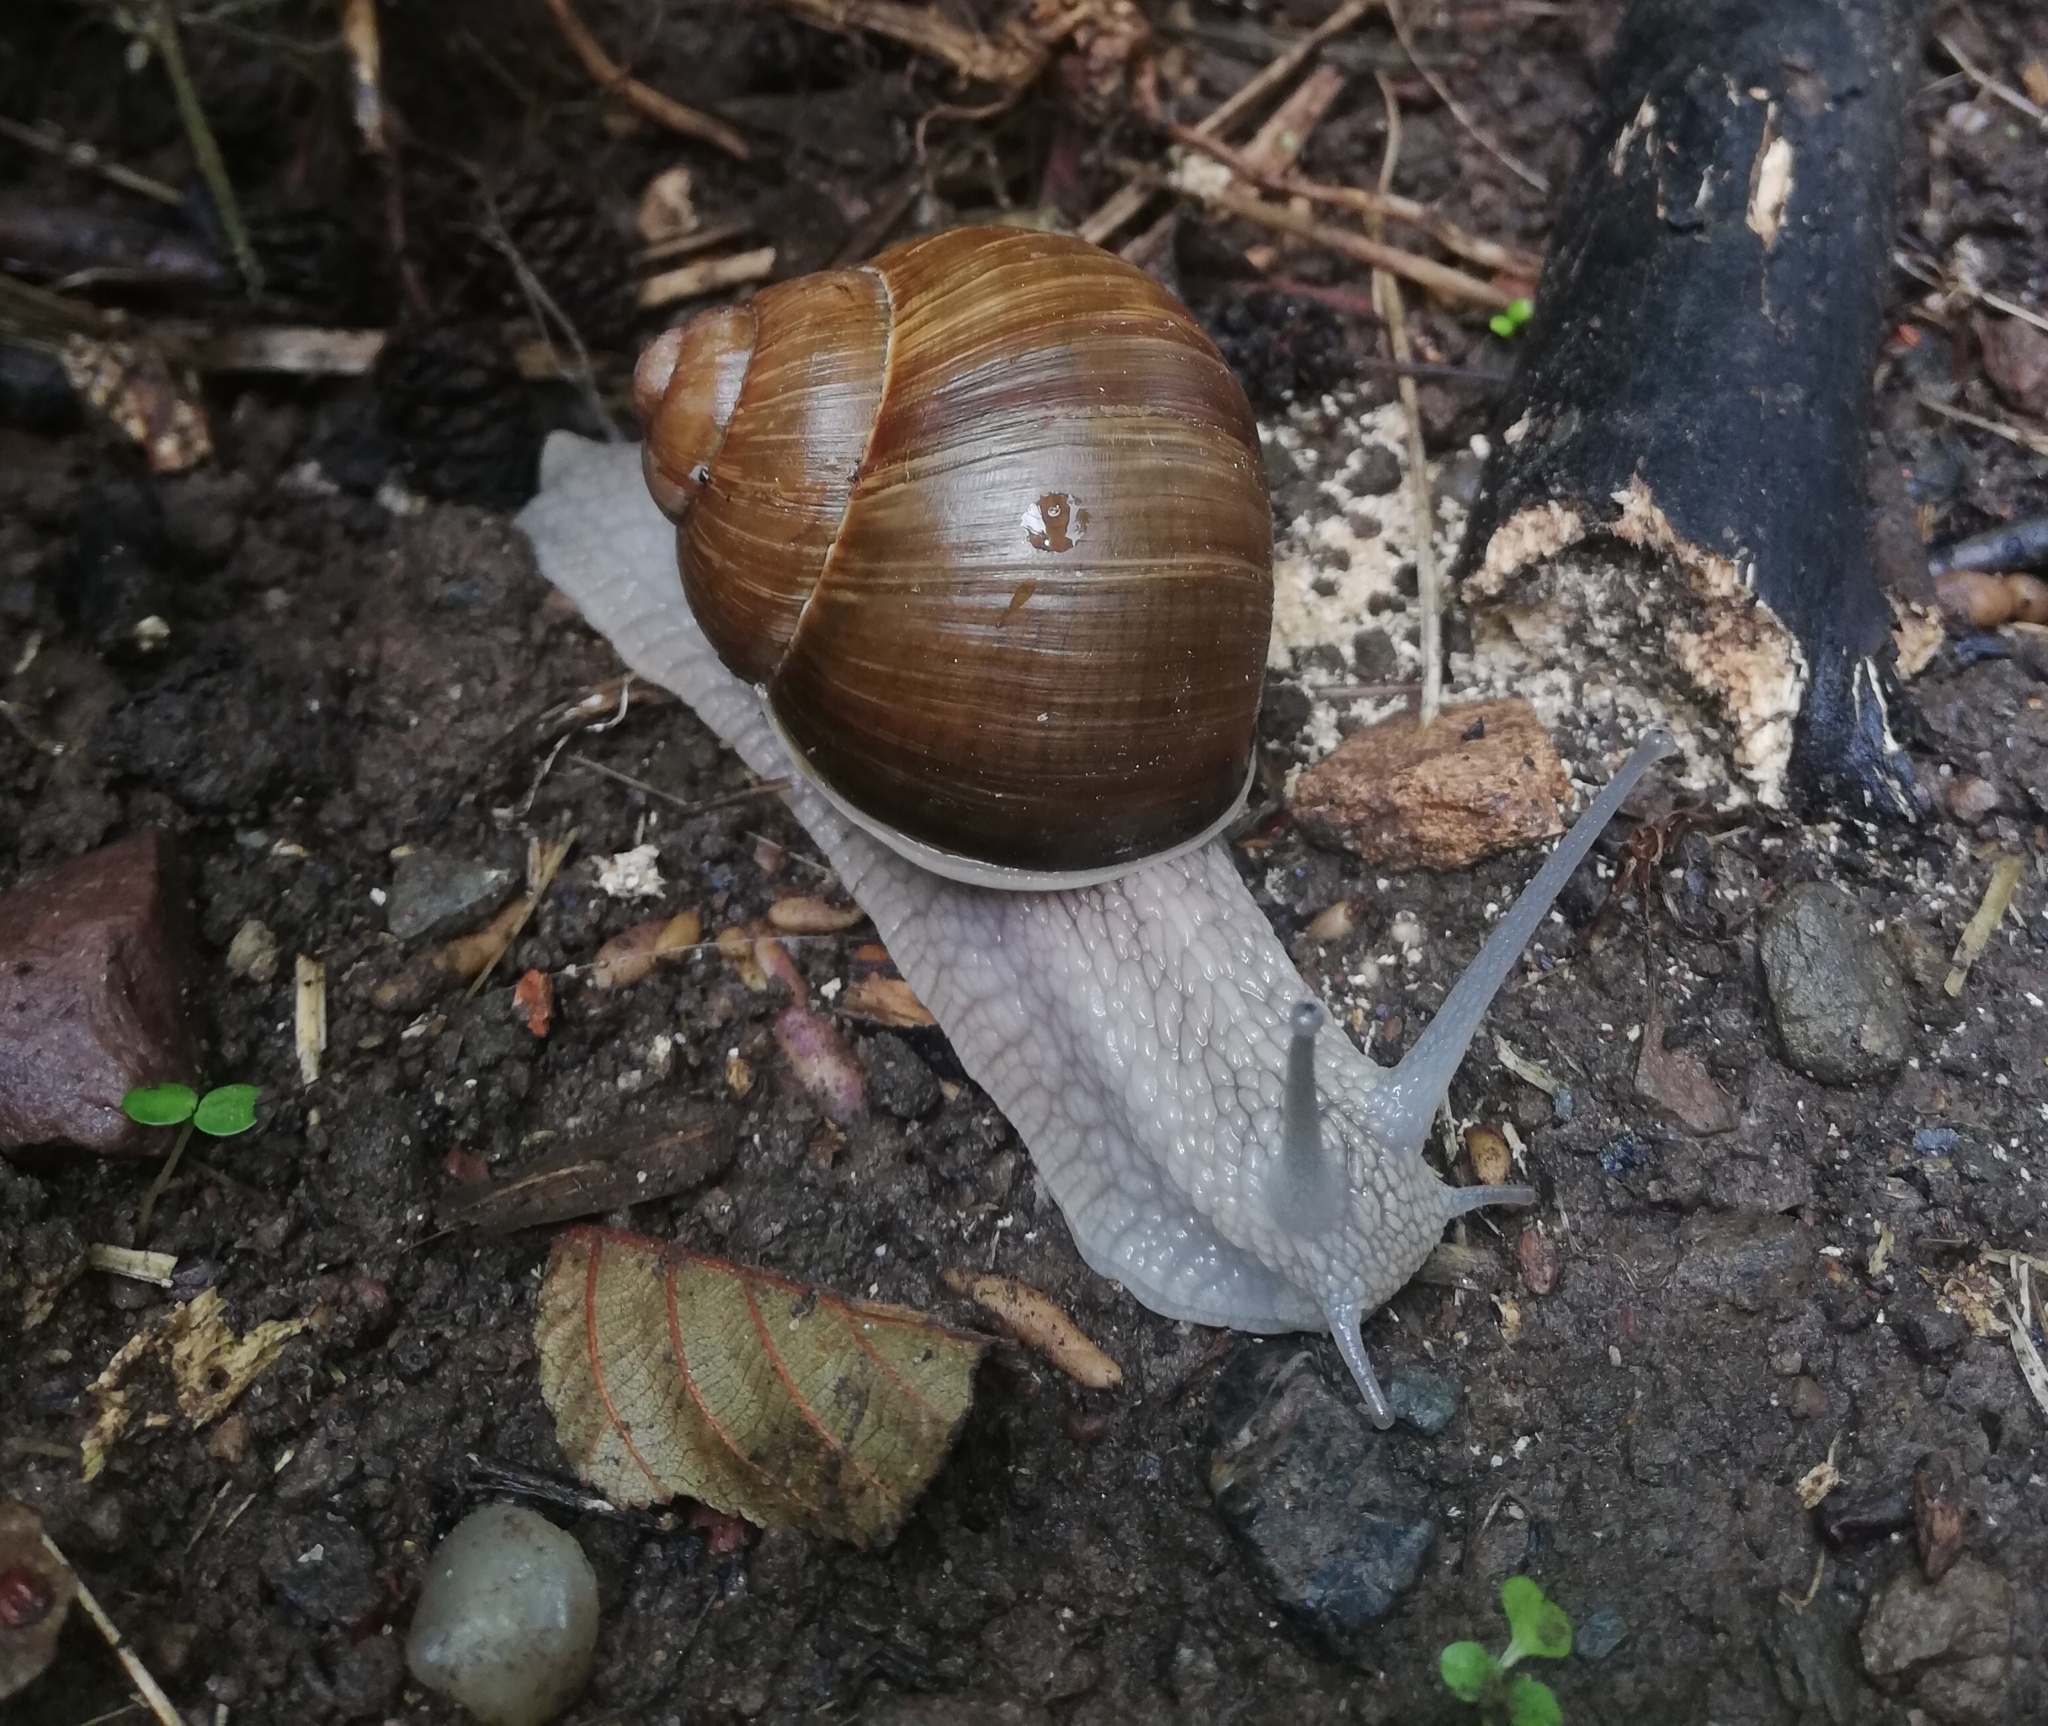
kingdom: Animalia
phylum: Mollusca
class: Gastropoda
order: Stylommatophora
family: Helicidae
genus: Helix
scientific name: Helix pomatia
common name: Roman snail
